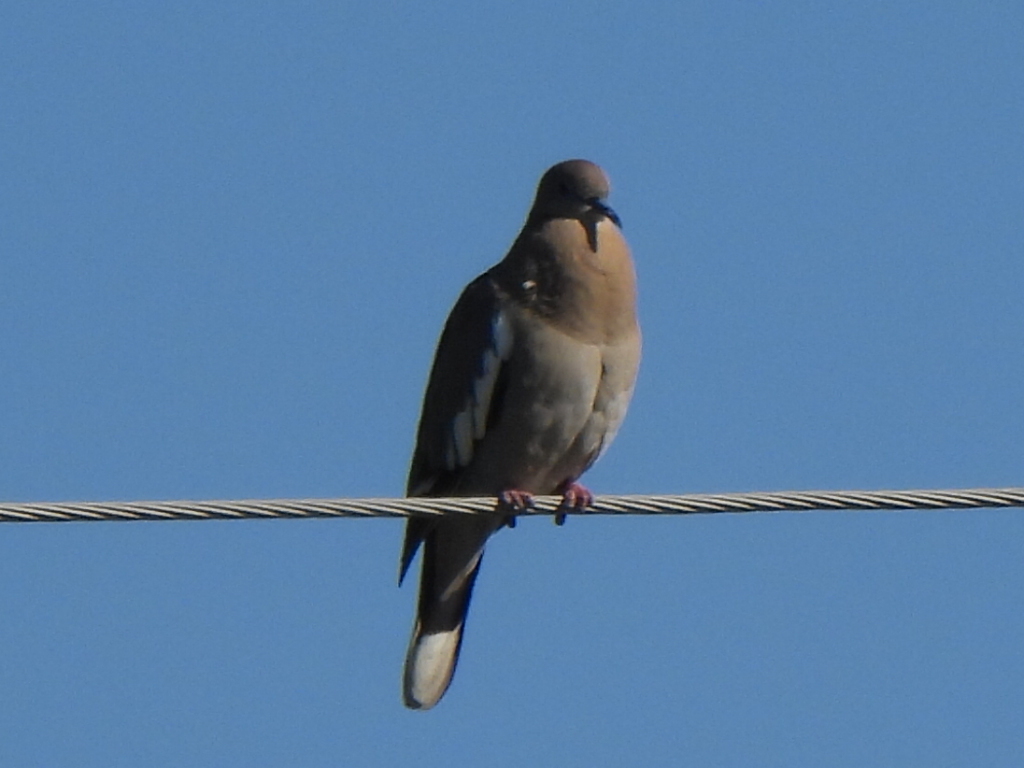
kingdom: Animalia
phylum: Chordata
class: Aves
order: Columbiformes
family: Columbidae
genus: Zenaida
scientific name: Zenaida asiatica
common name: White-winged dove
